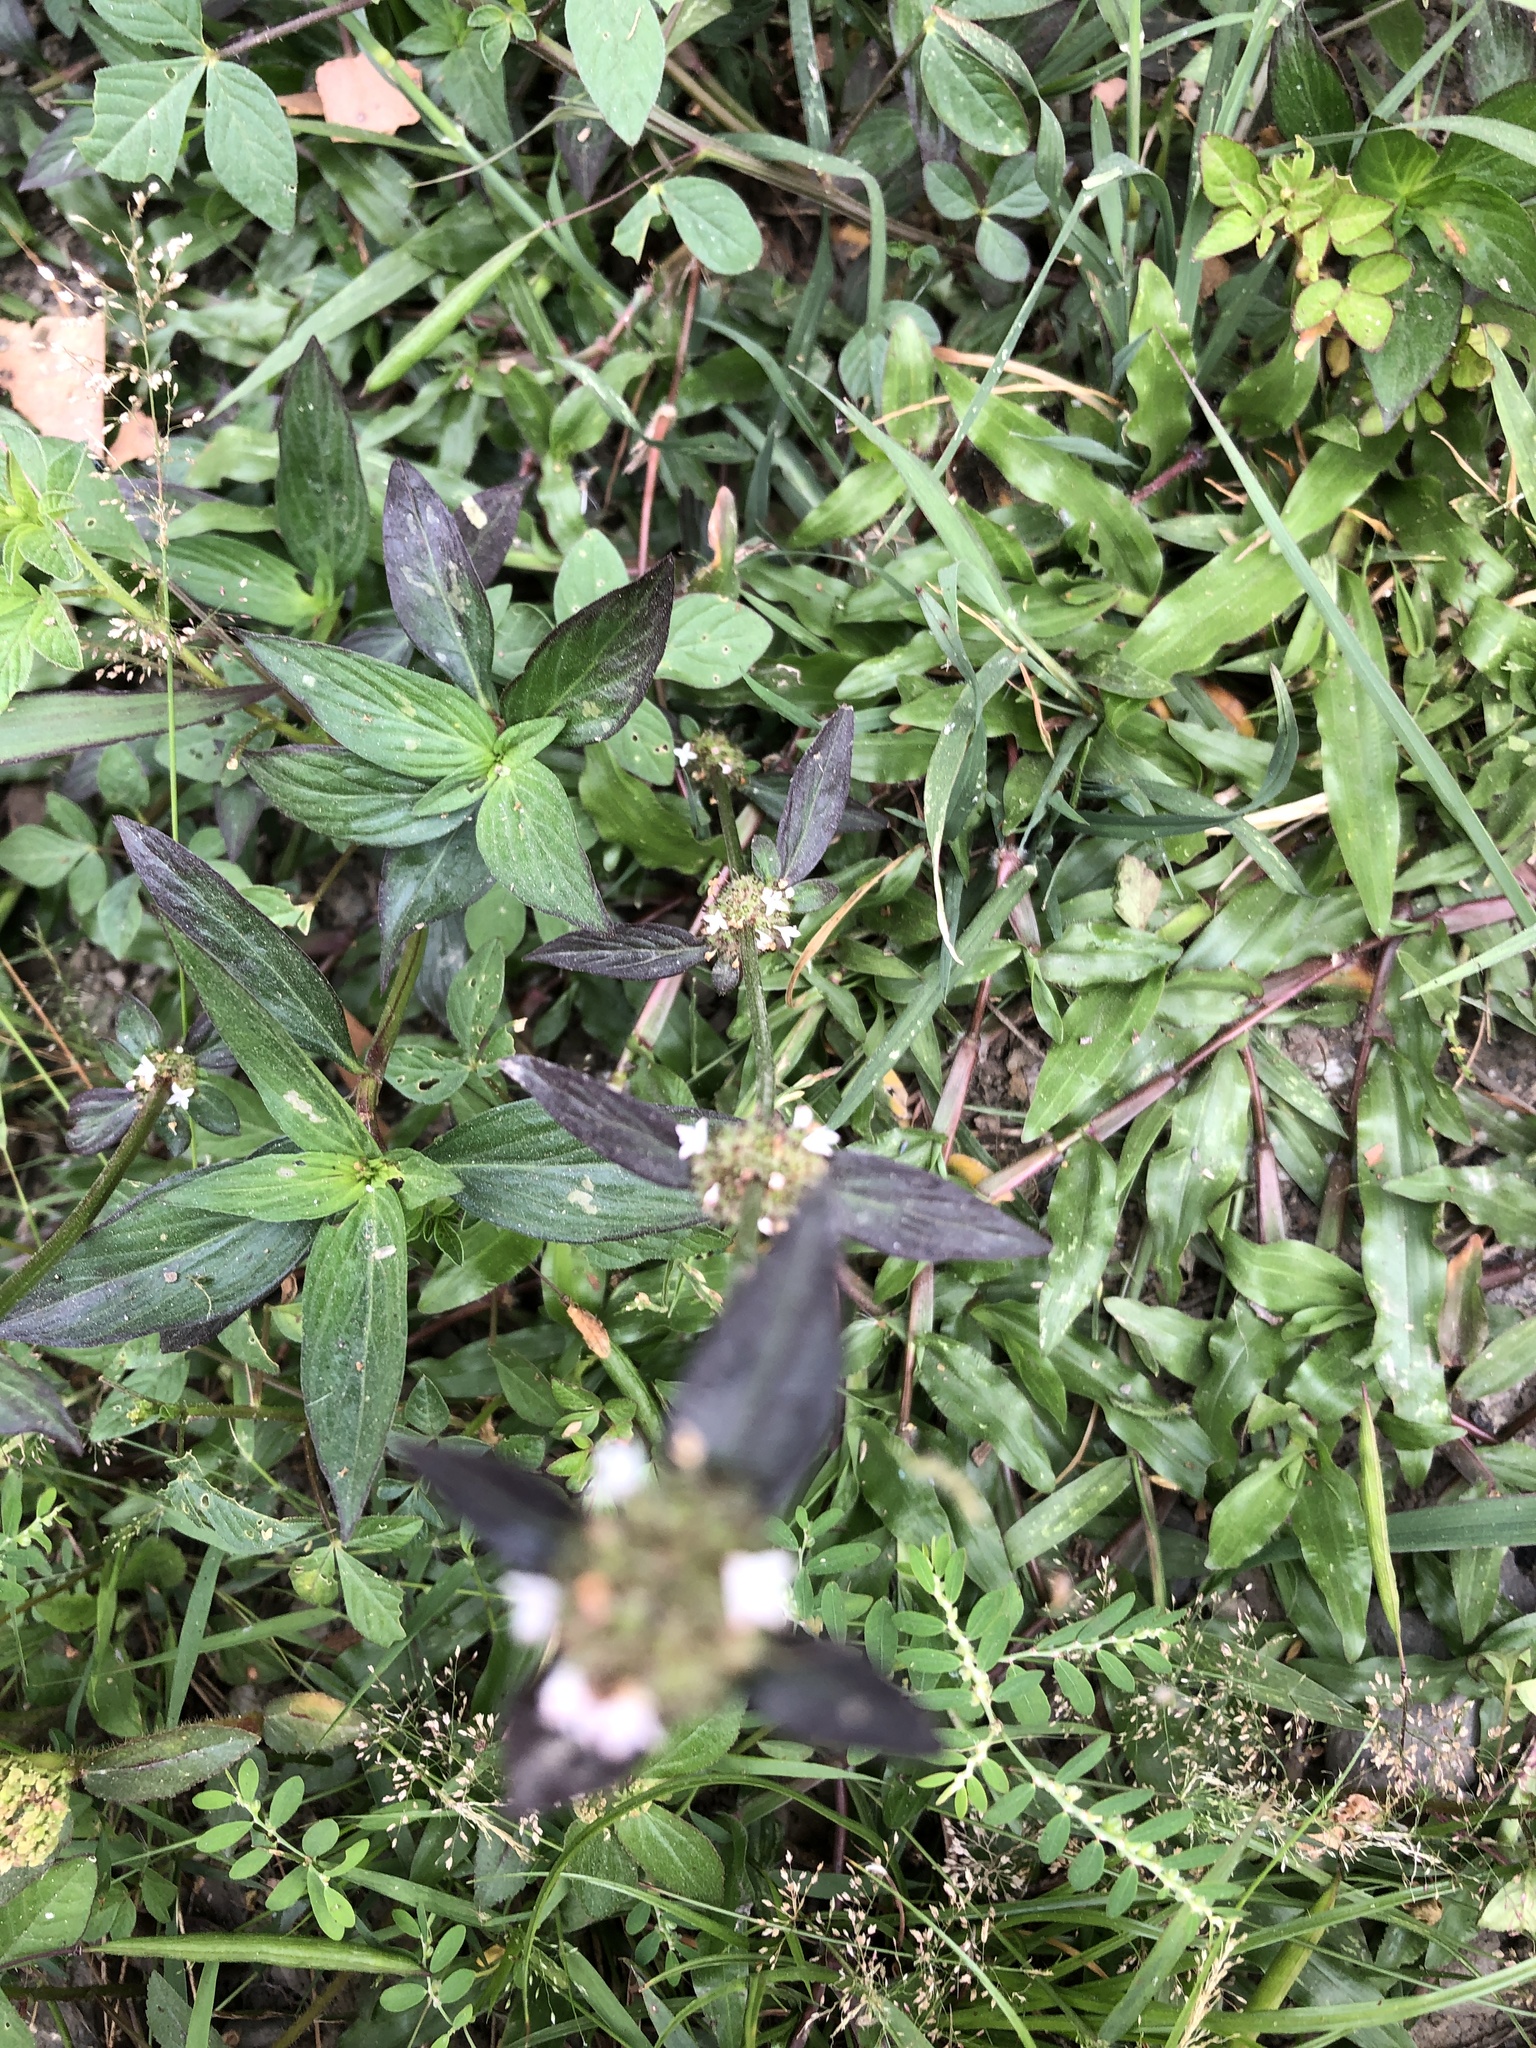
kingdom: Plantae
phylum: Tracheophyta
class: Magnoliopsida
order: Gentianales
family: Rubiaceae
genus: Spermacoce
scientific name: Spermacoce remota
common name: Woodland false buttonweed
